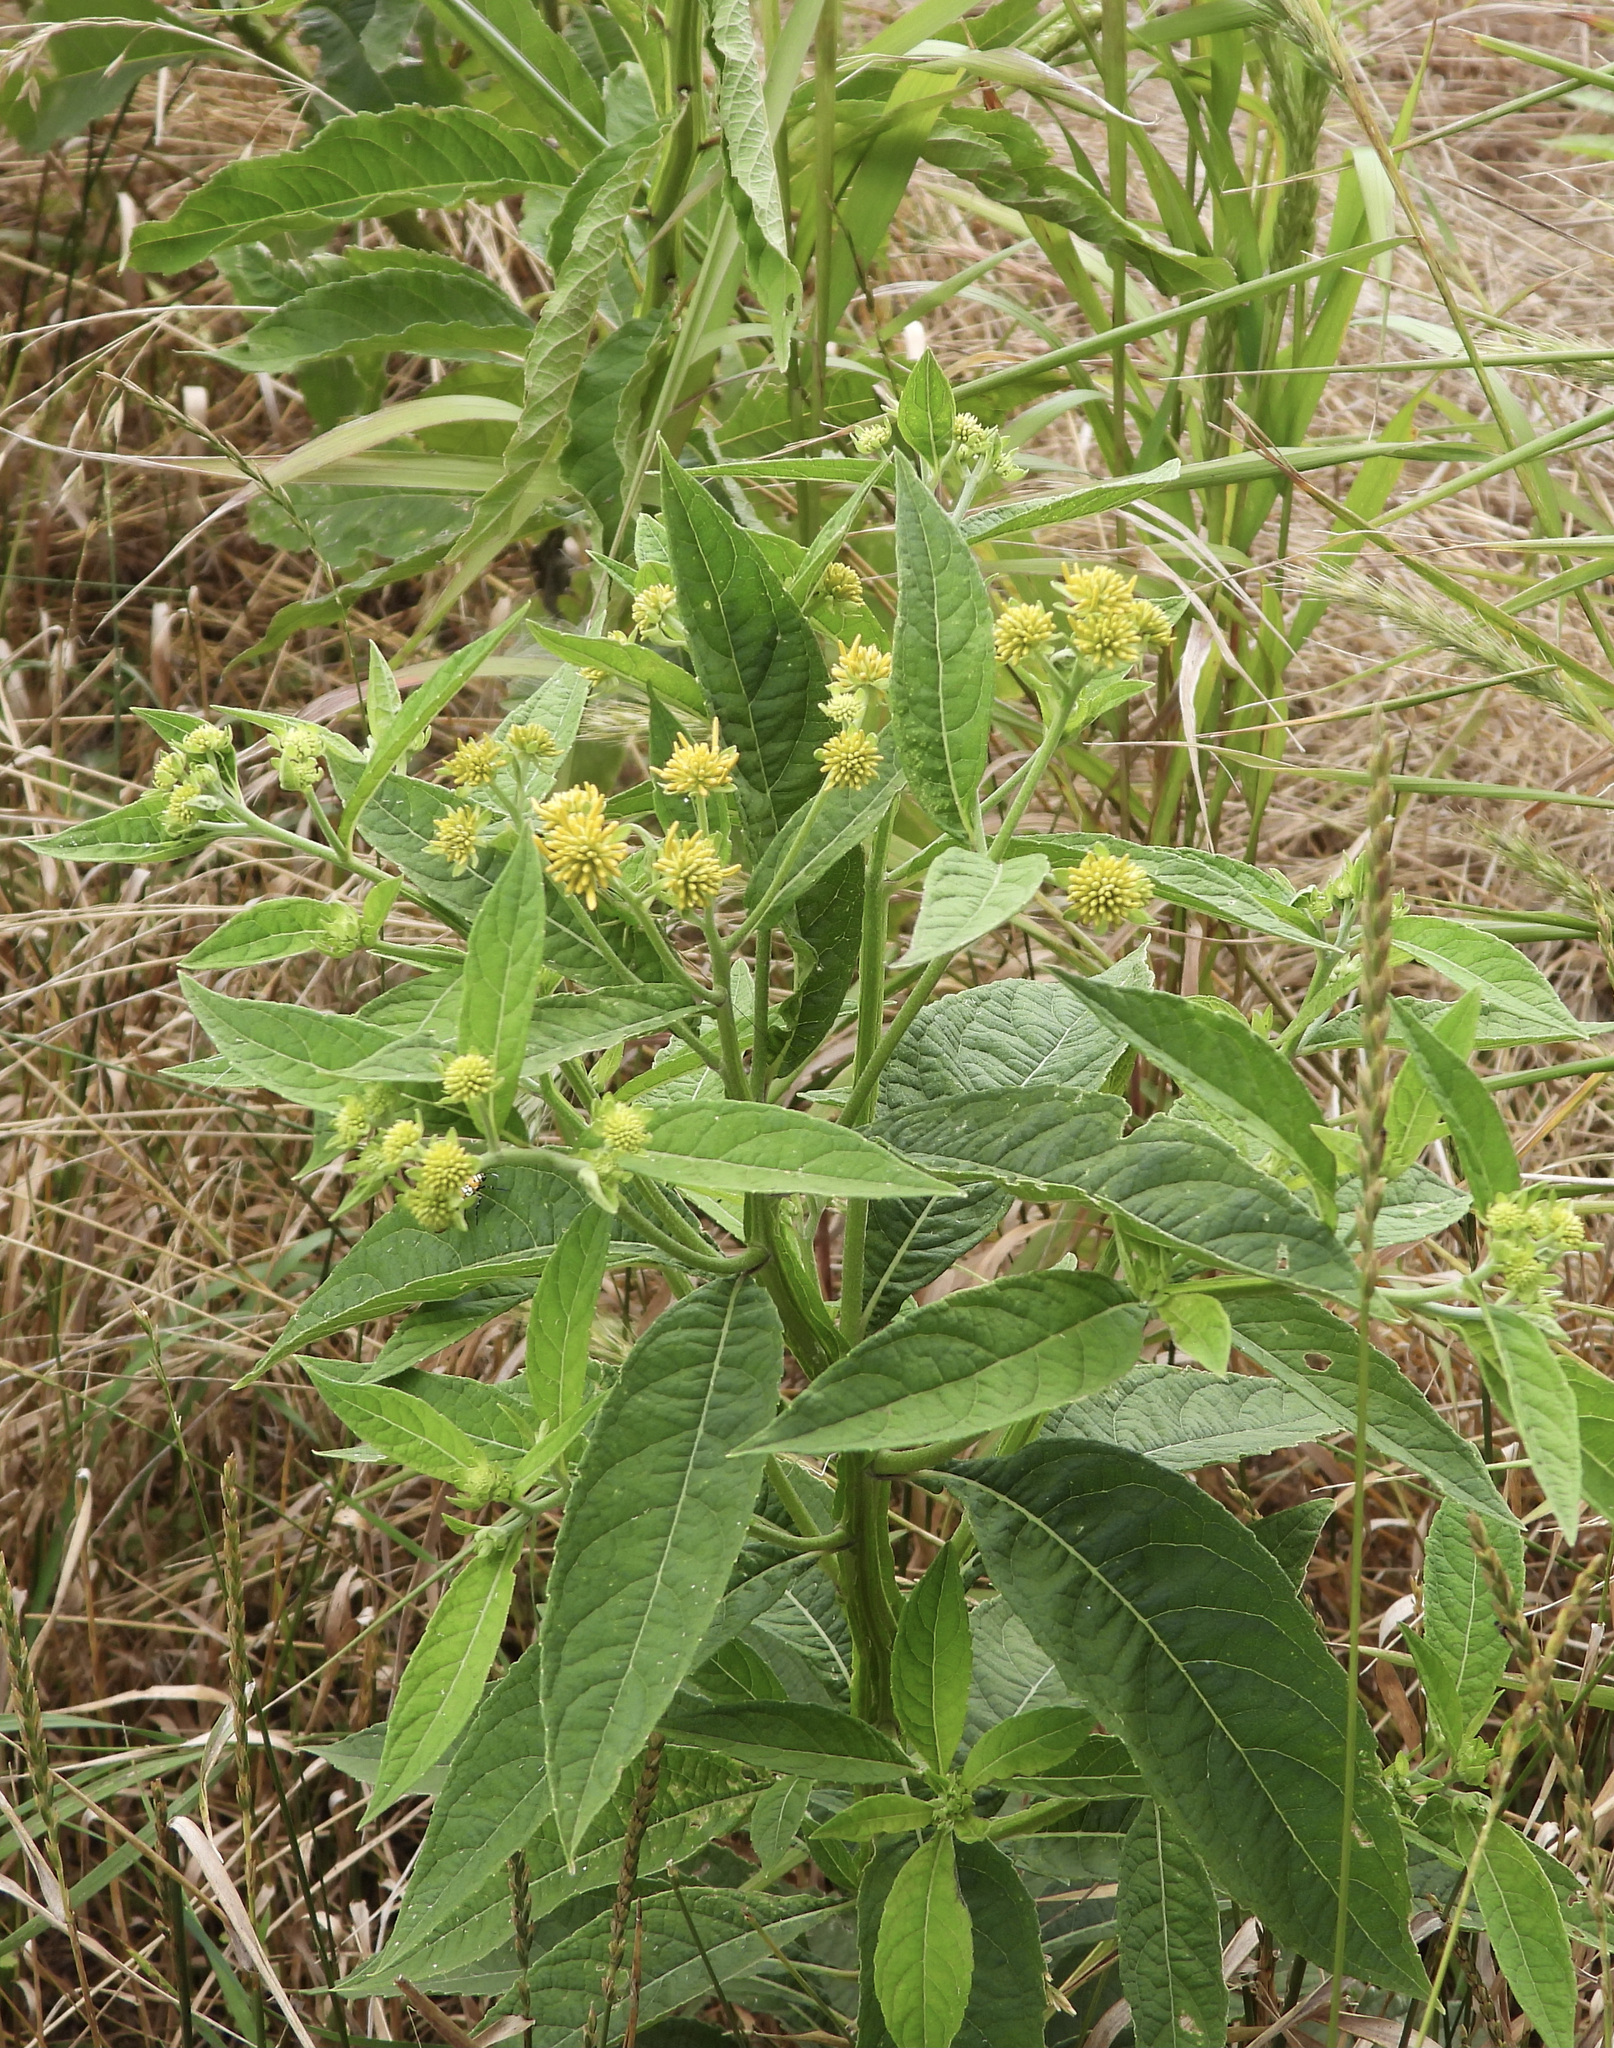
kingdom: Plantae
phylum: Tracheophyta
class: Magnoliopsida
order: Asterales
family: Asteraceae
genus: Verbesina
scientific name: Verbesina alternifolia
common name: Wingstem
